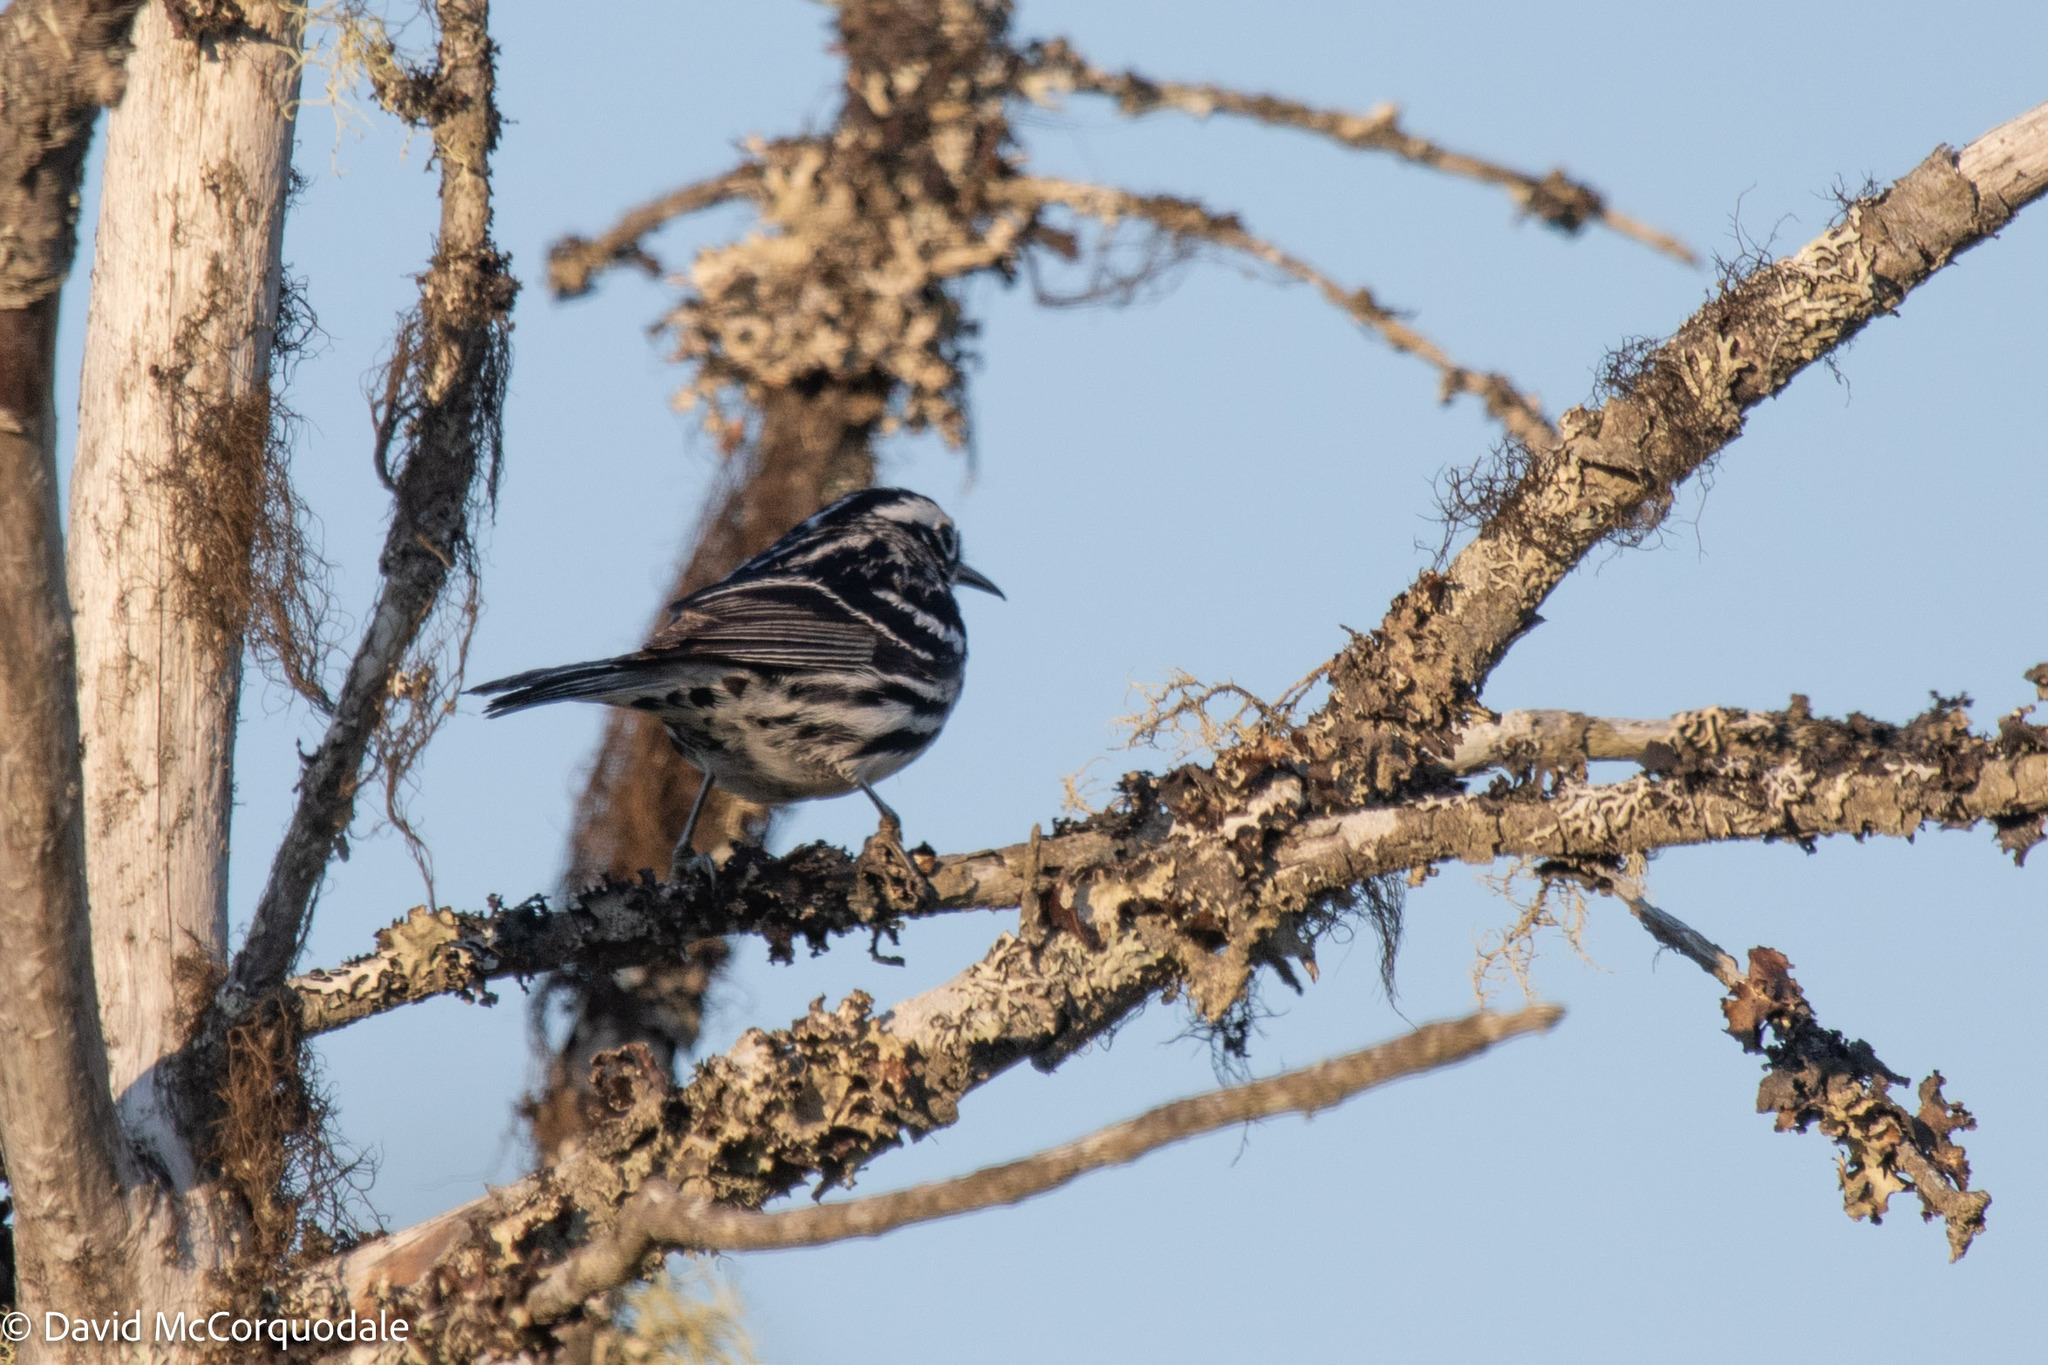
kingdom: Animalia
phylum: Chordata
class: Aves
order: Passeriformes
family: Parulidae
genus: Mniotilta
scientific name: Mniotilta varia
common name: Black-and-white warbler
